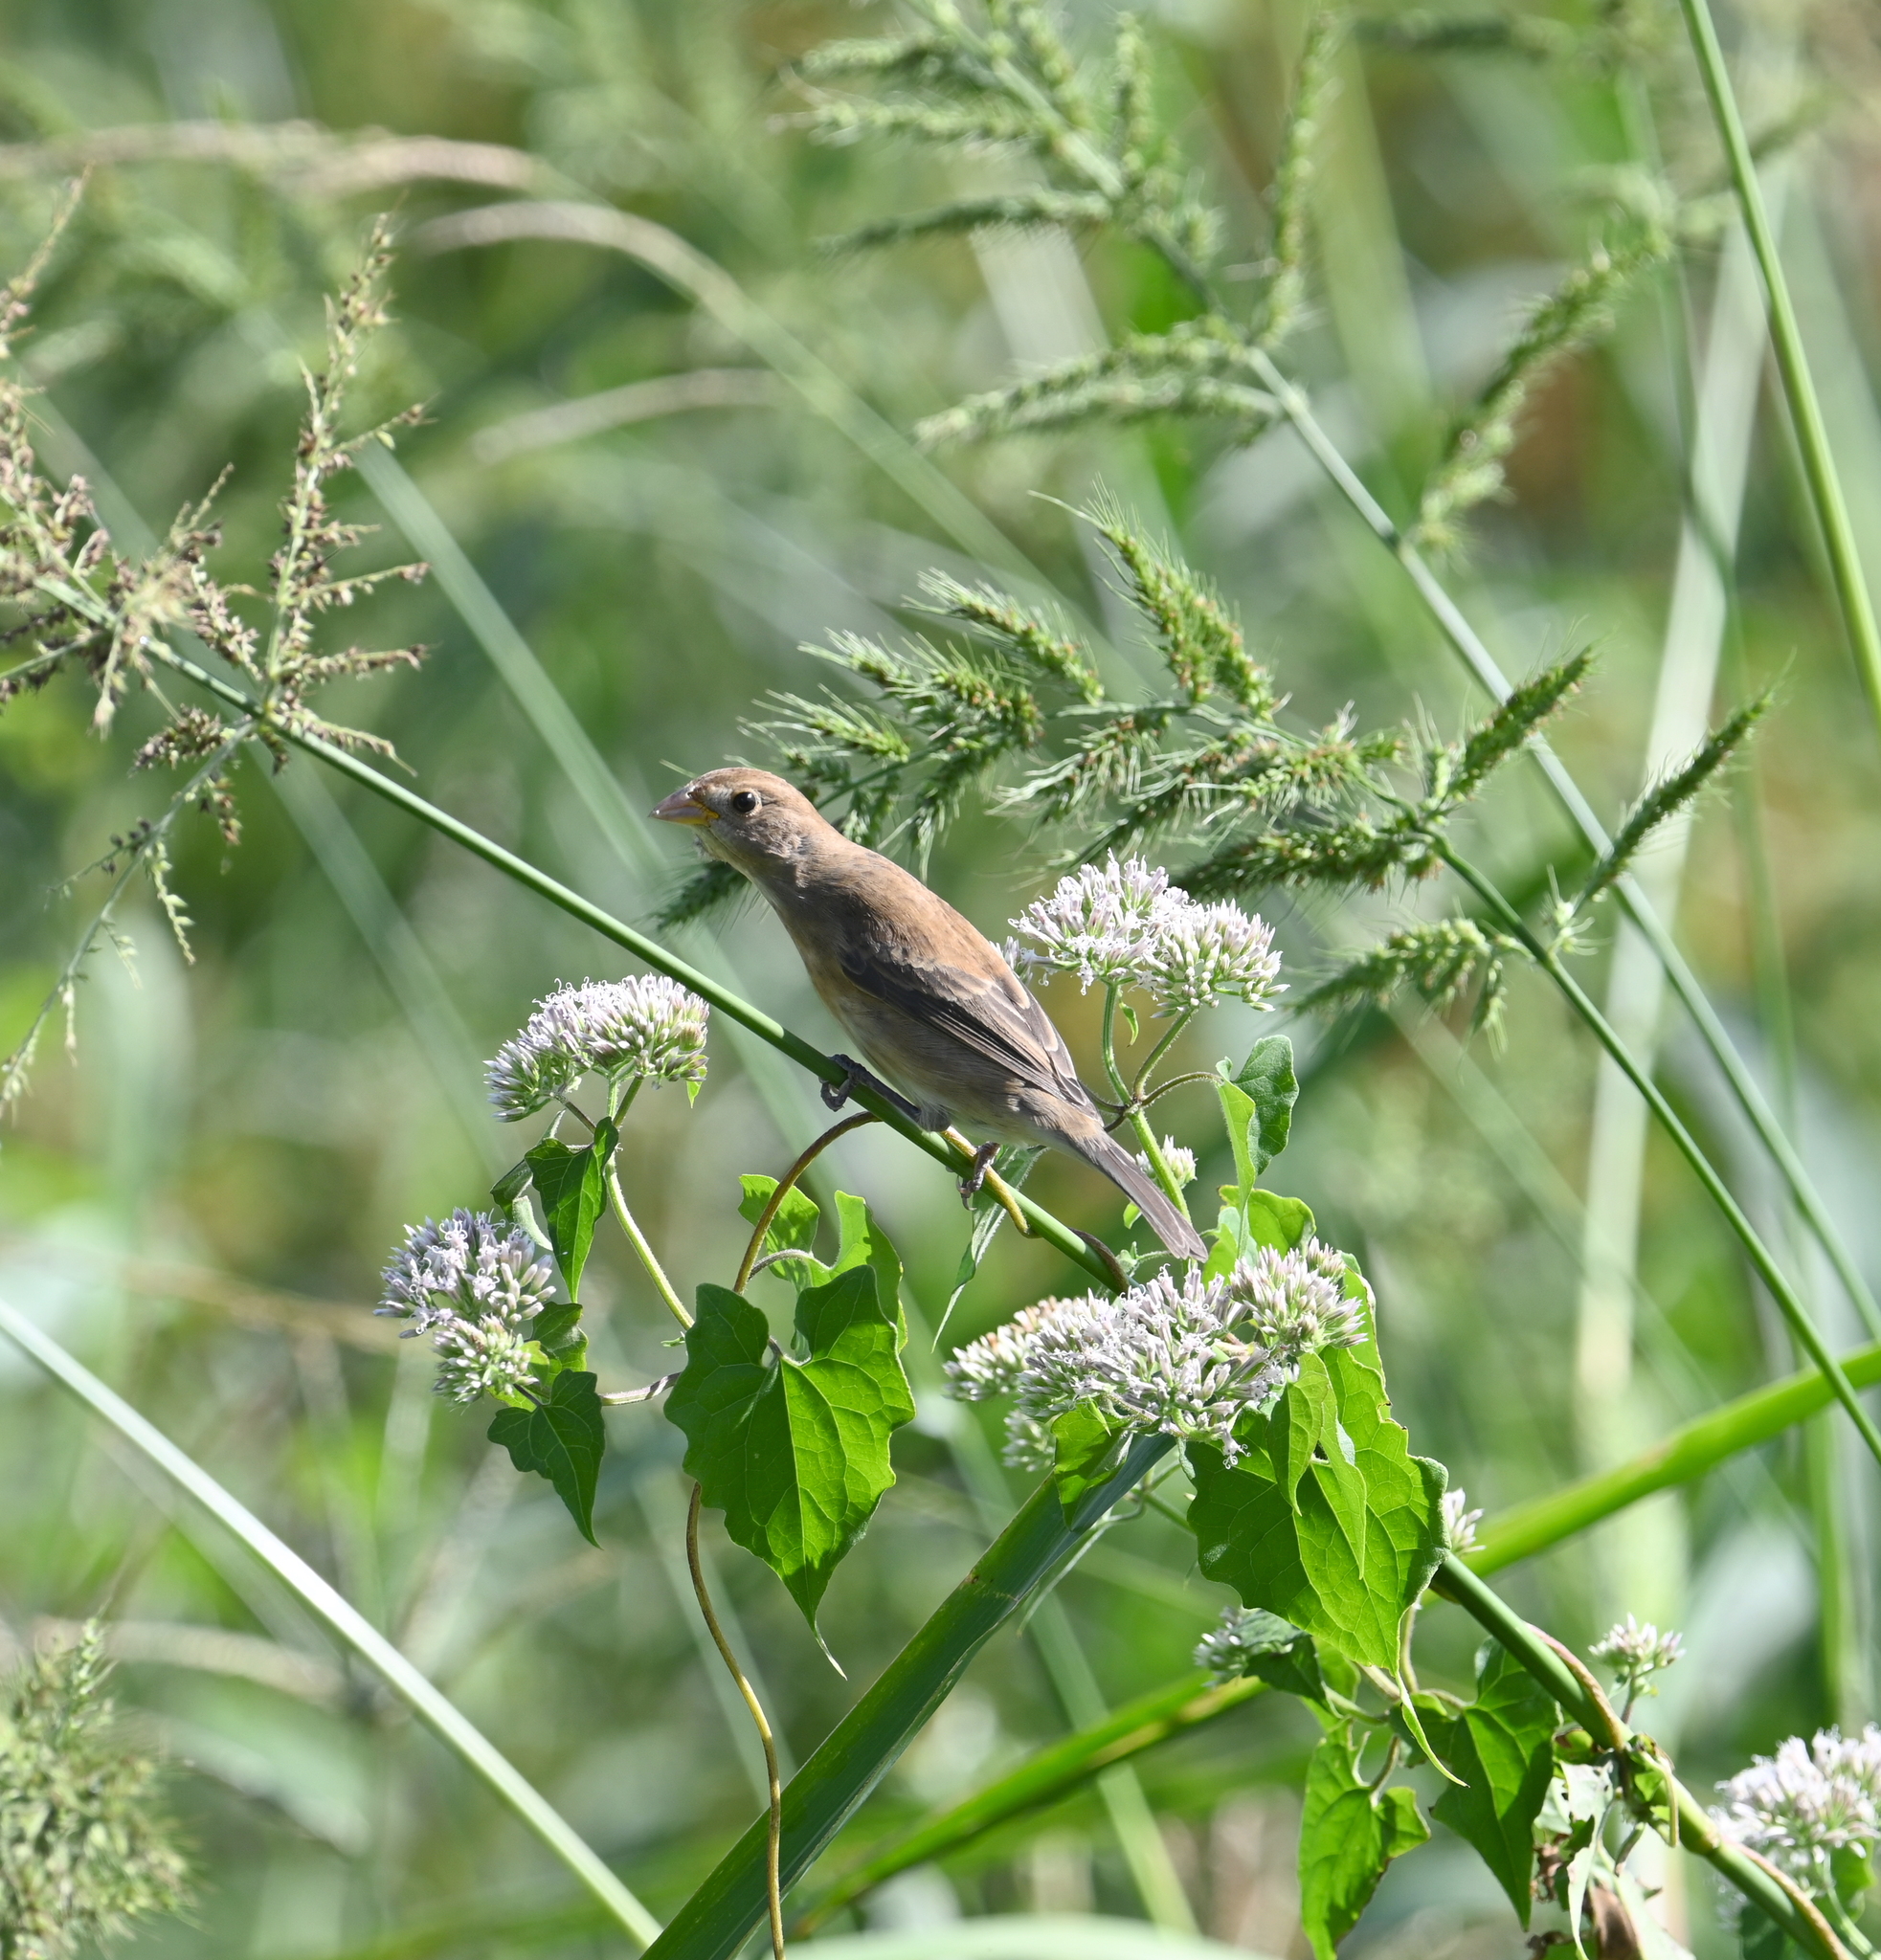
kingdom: Animalia
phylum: Chordata
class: Aves
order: Passeriformes
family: Cardinalidae
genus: Passerina
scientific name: Passerina cyanea
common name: Indigo bunting
